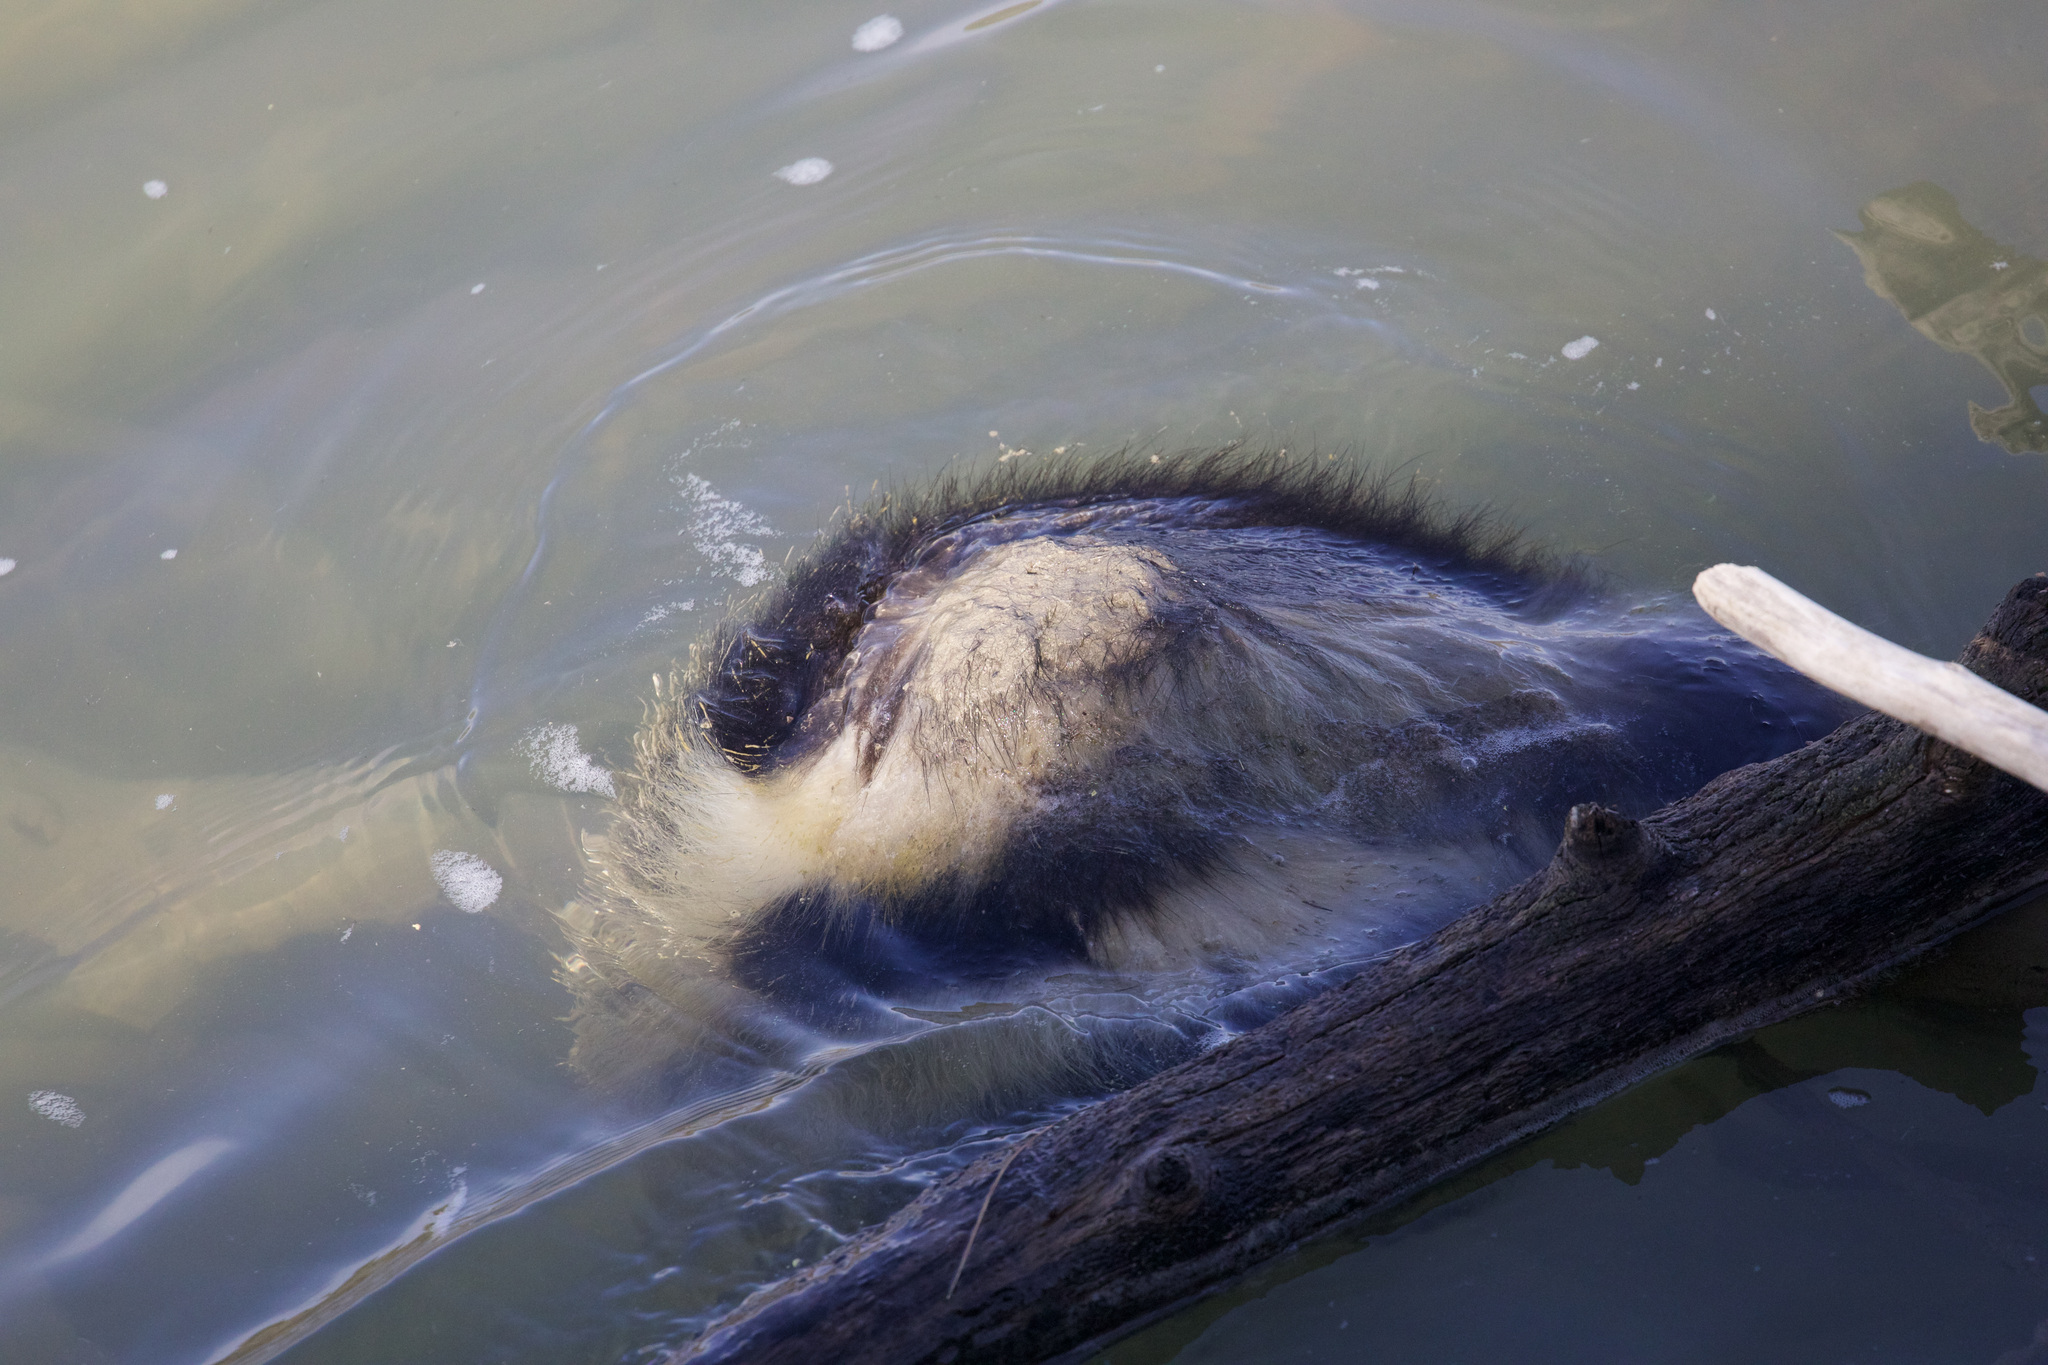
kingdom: Animalia
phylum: Chordata
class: Mammalia
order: Carnivora
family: Mephitidae
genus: Mephitis
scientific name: Mephitis mephitis
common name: Striped skunk
